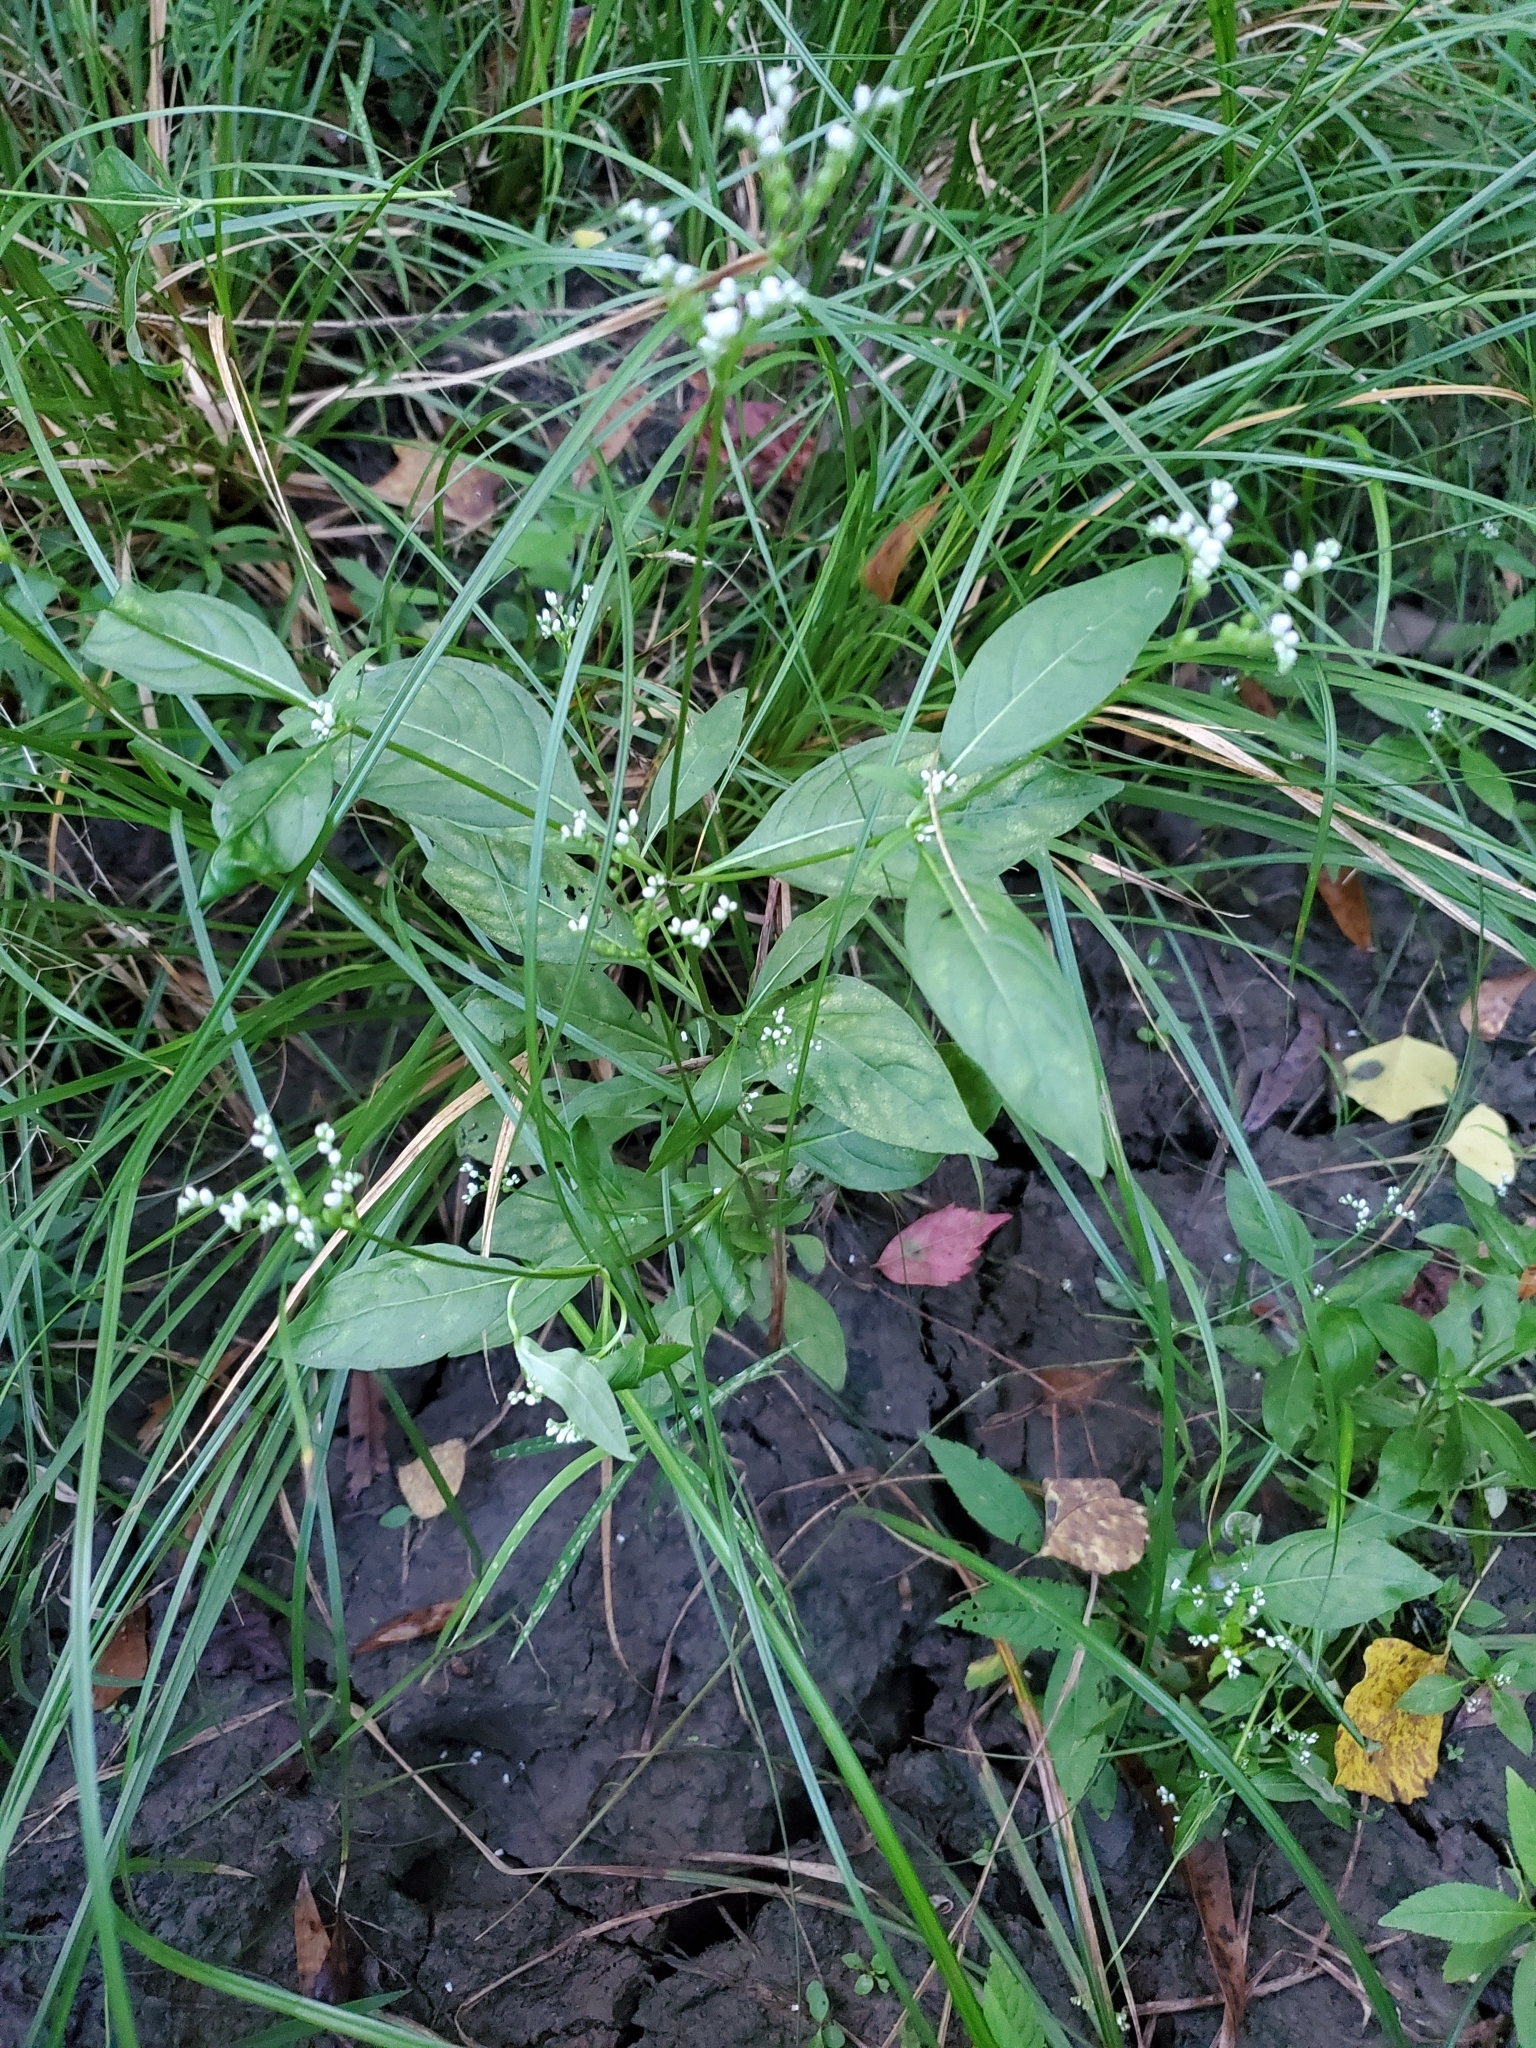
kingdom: Plantae
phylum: Tracheophyta
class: Magnoliopsida
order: Gentianales
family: Loganiaceae
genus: Mitreola
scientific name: Mitreola petiolata
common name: Lax hornpod
